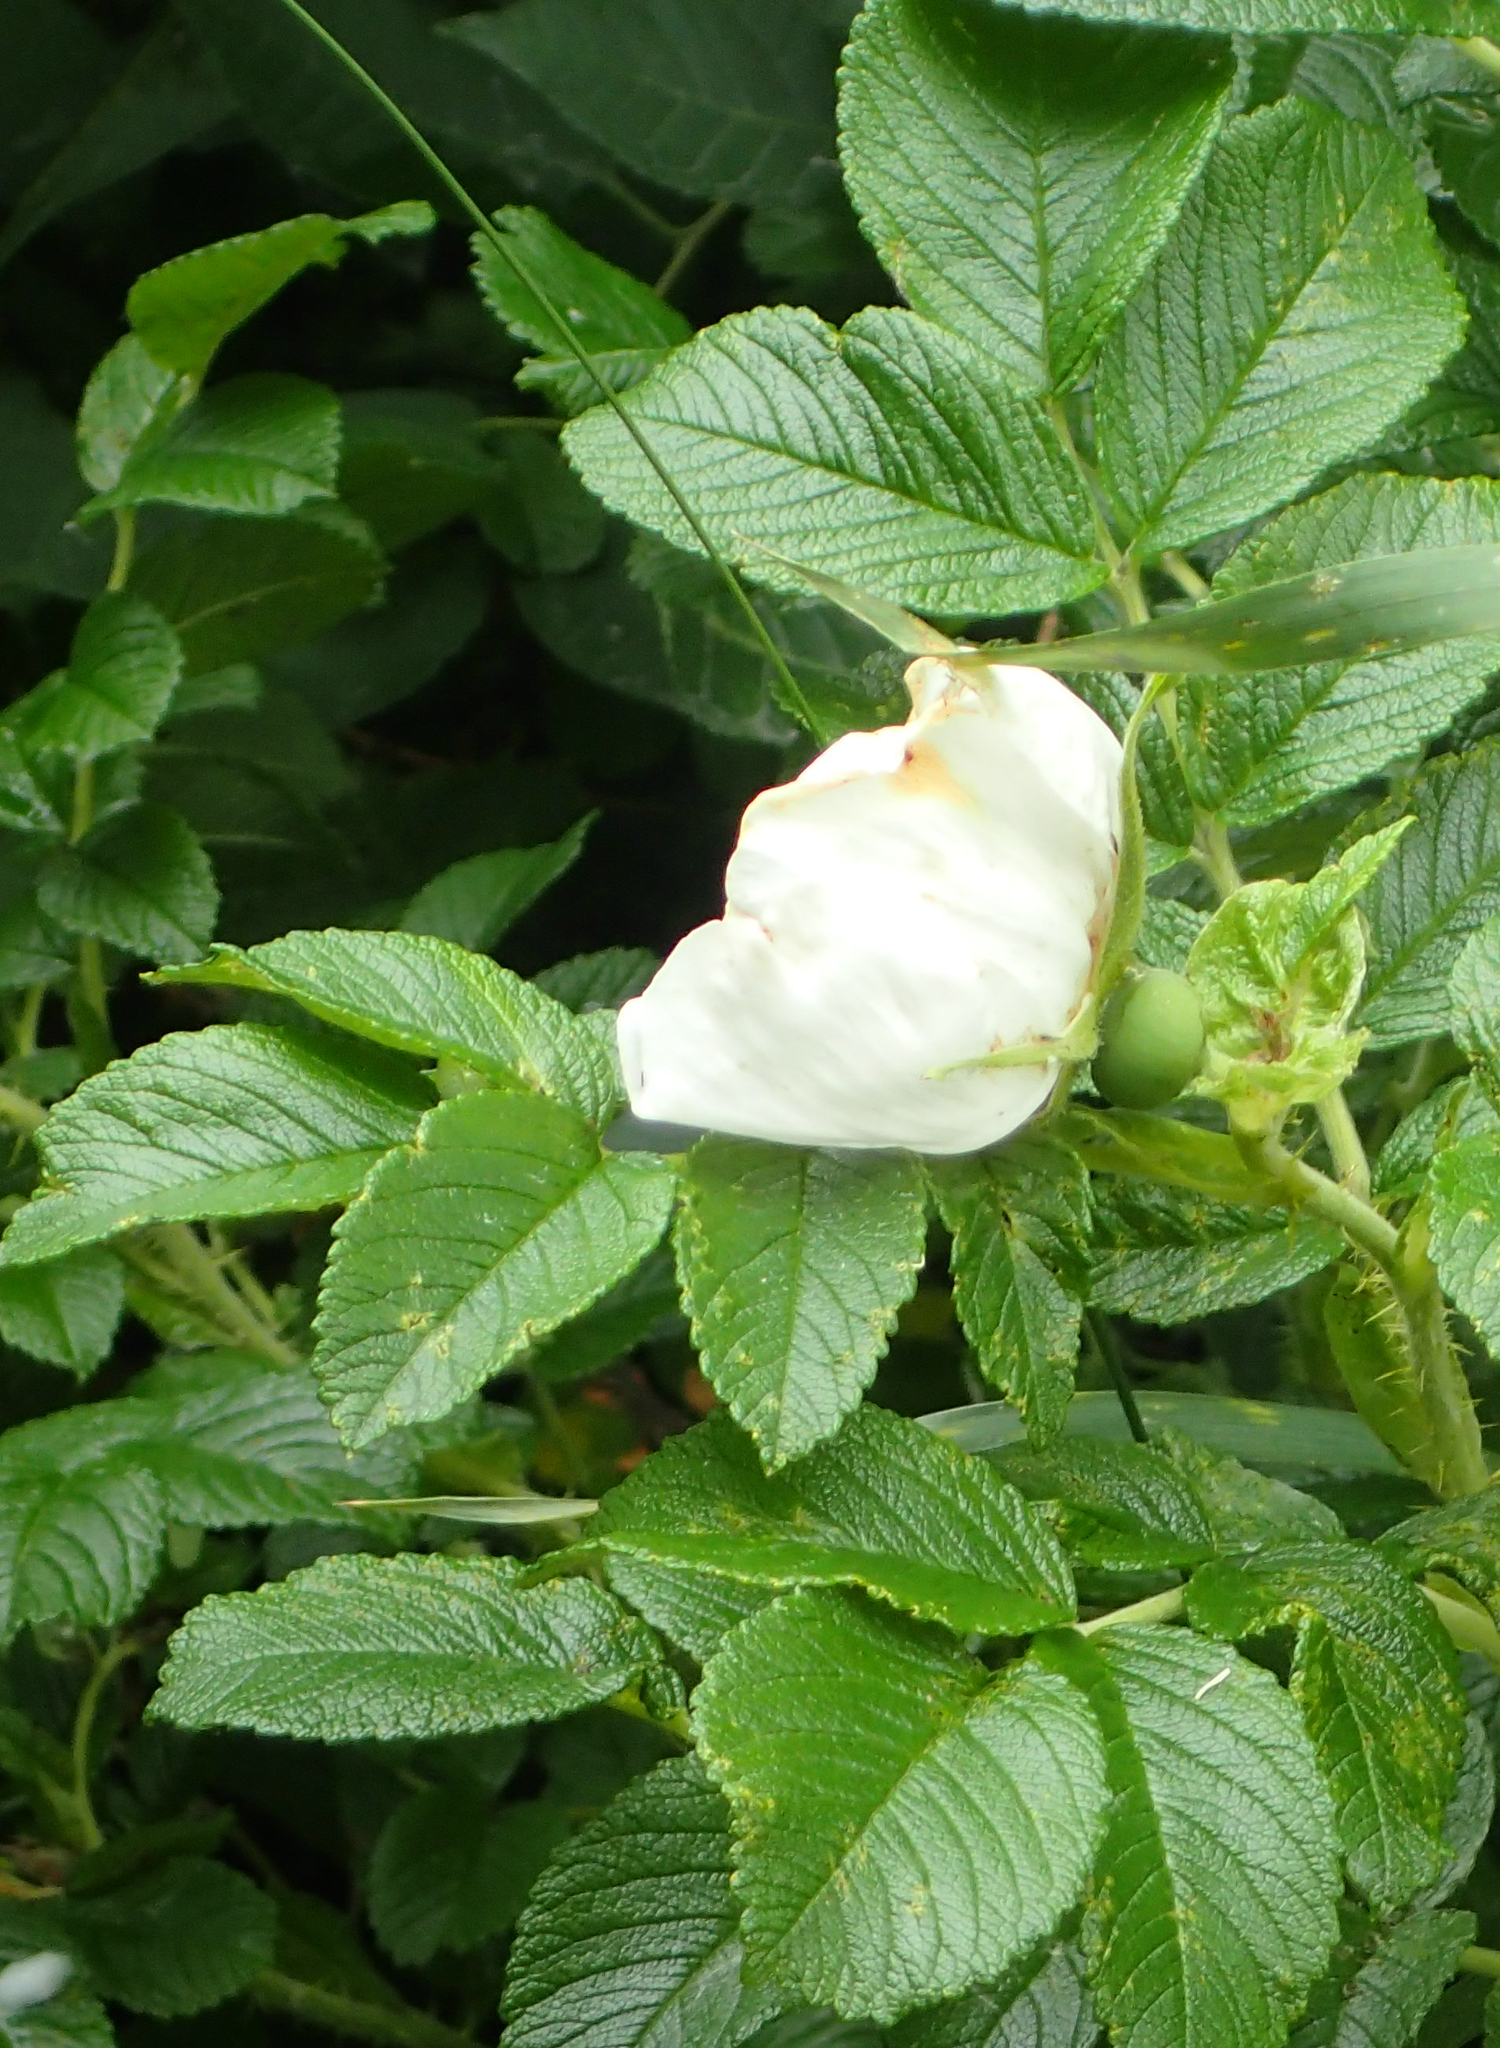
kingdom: Plantae
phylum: Tracheophyta
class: Magnoliopsida
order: Rosales
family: Rosaceae
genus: Rosa
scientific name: Rosa rugosa
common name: Japanese rose
